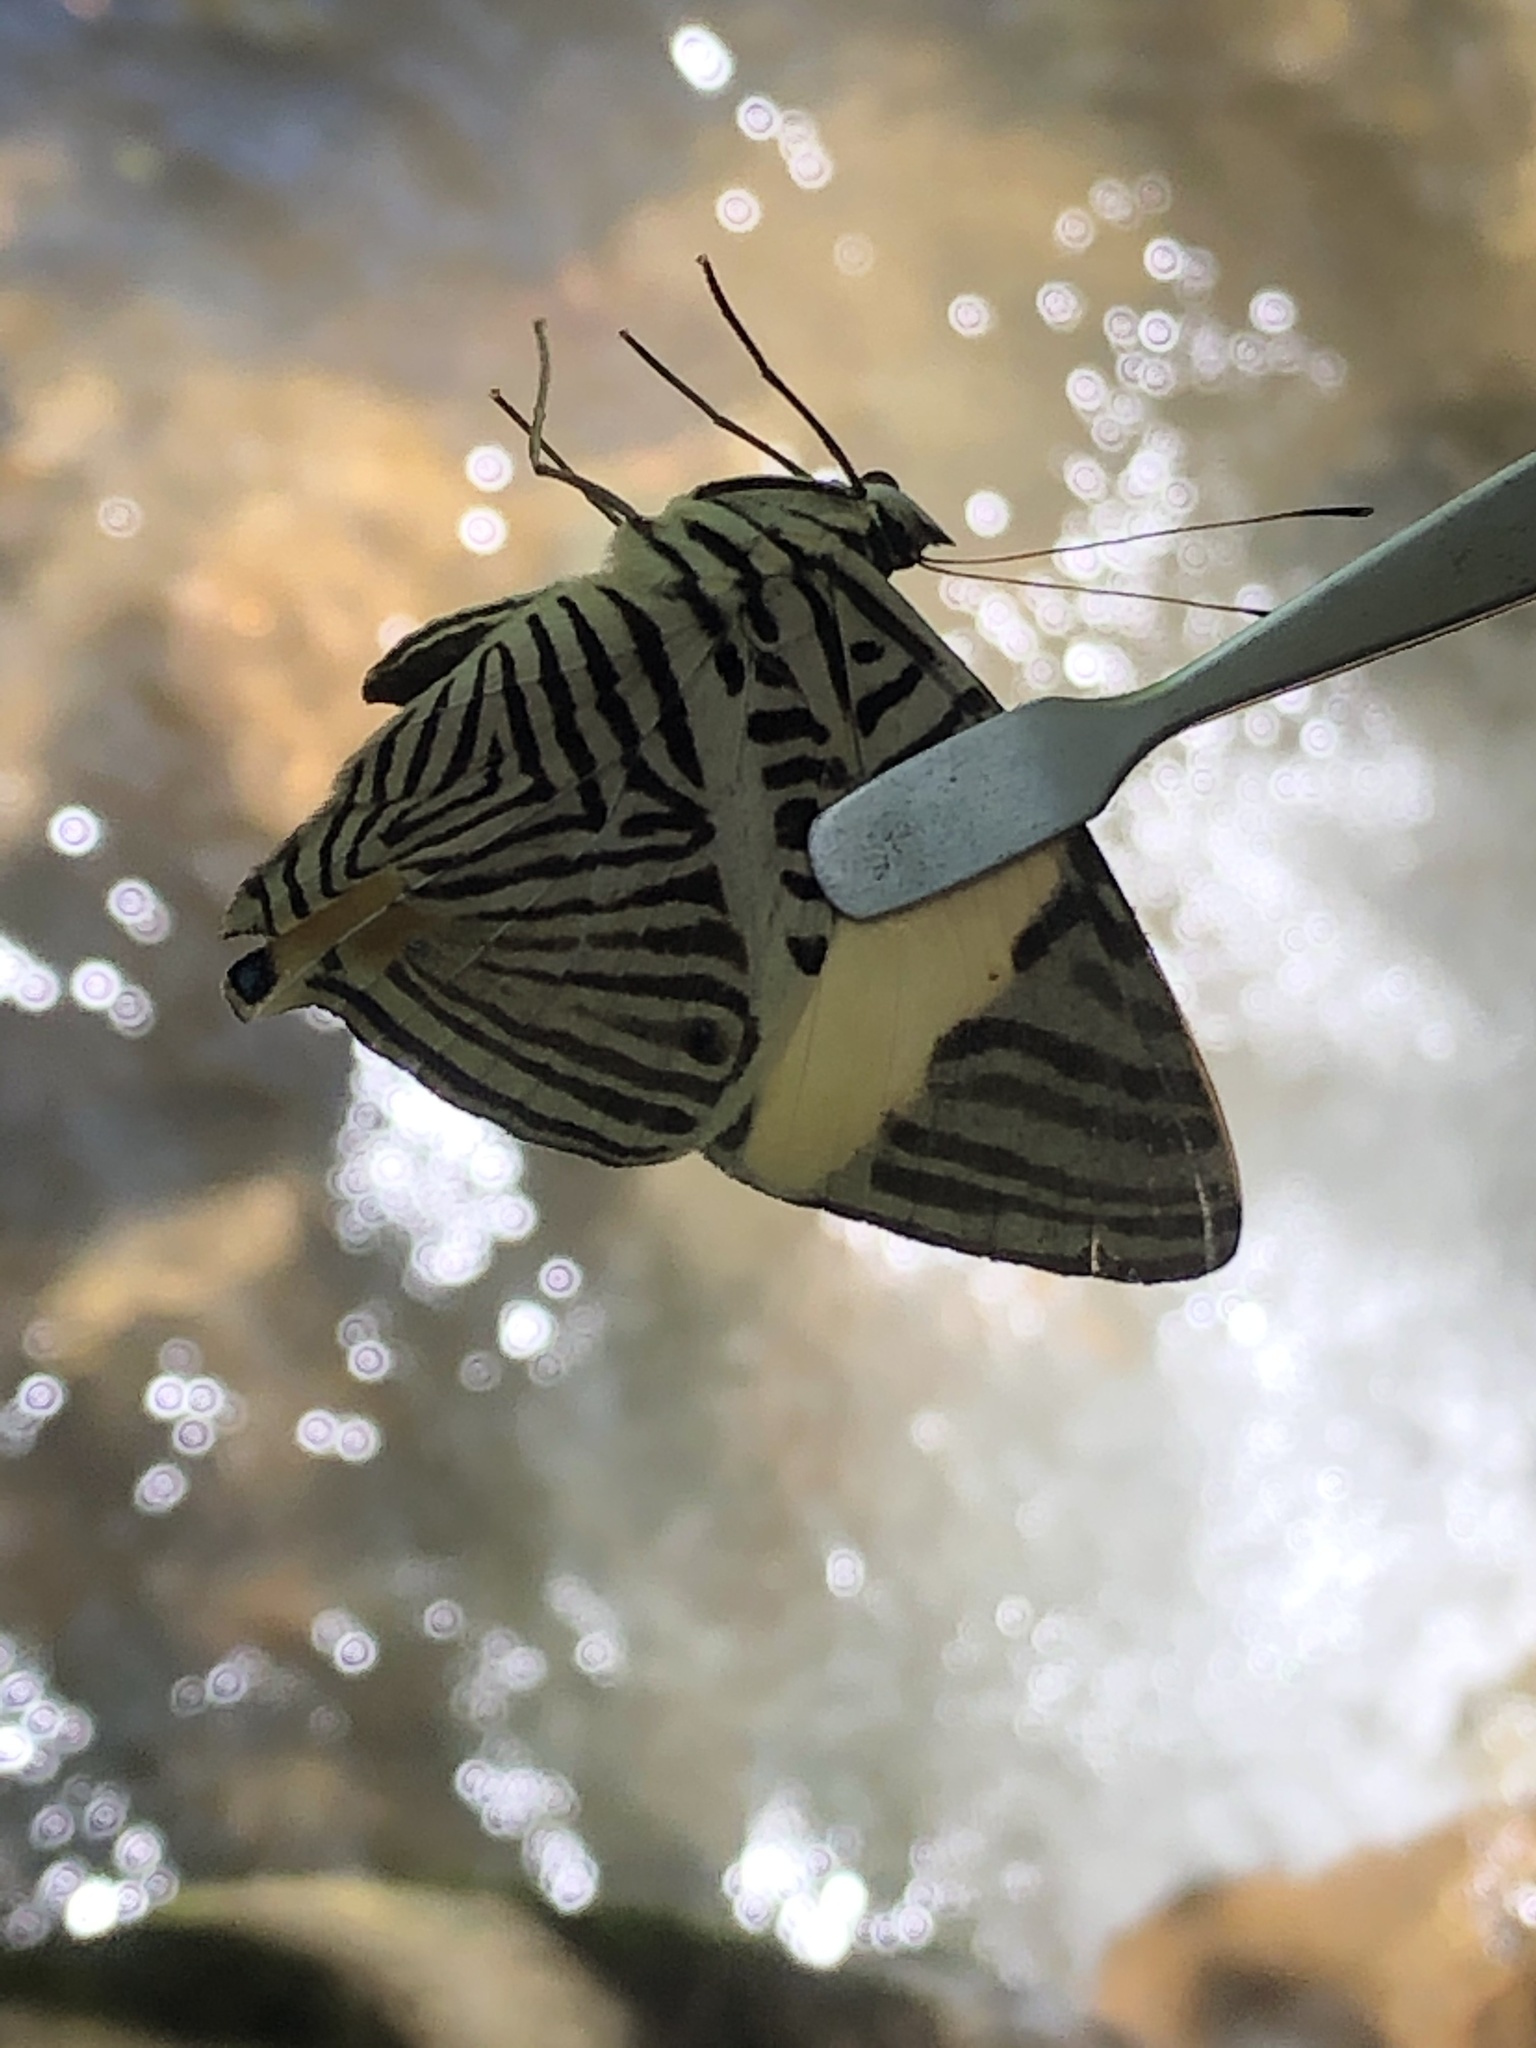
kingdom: Animalia
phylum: Arthropoda
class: Insecta
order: Lepidoptera
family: Nymphalidae
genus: Colobura
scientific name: Colobura annulata
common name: New beauty
